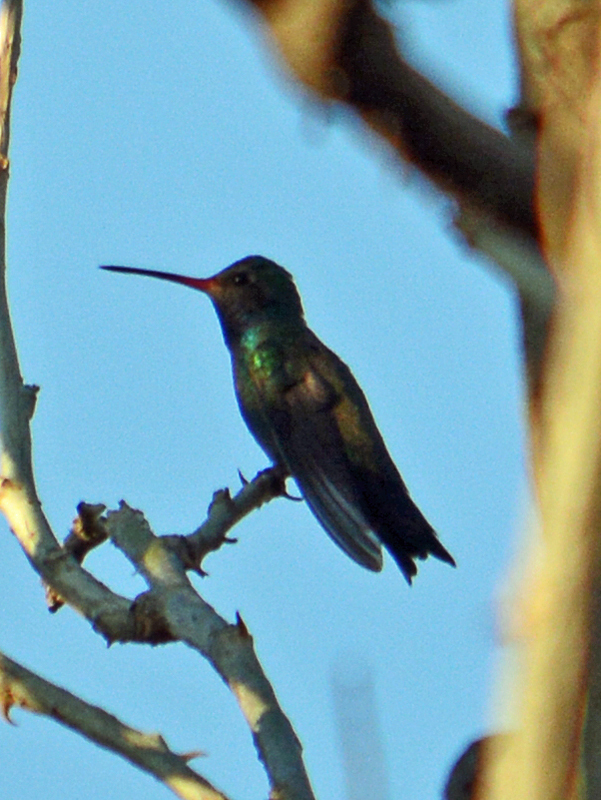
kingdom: Animalia
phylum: Chordata
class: Aves
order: Apodiformes
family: Trochilidae
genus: Cynanthus
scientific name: Cynanthus latirostris
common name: Broad-billed hummingbird
